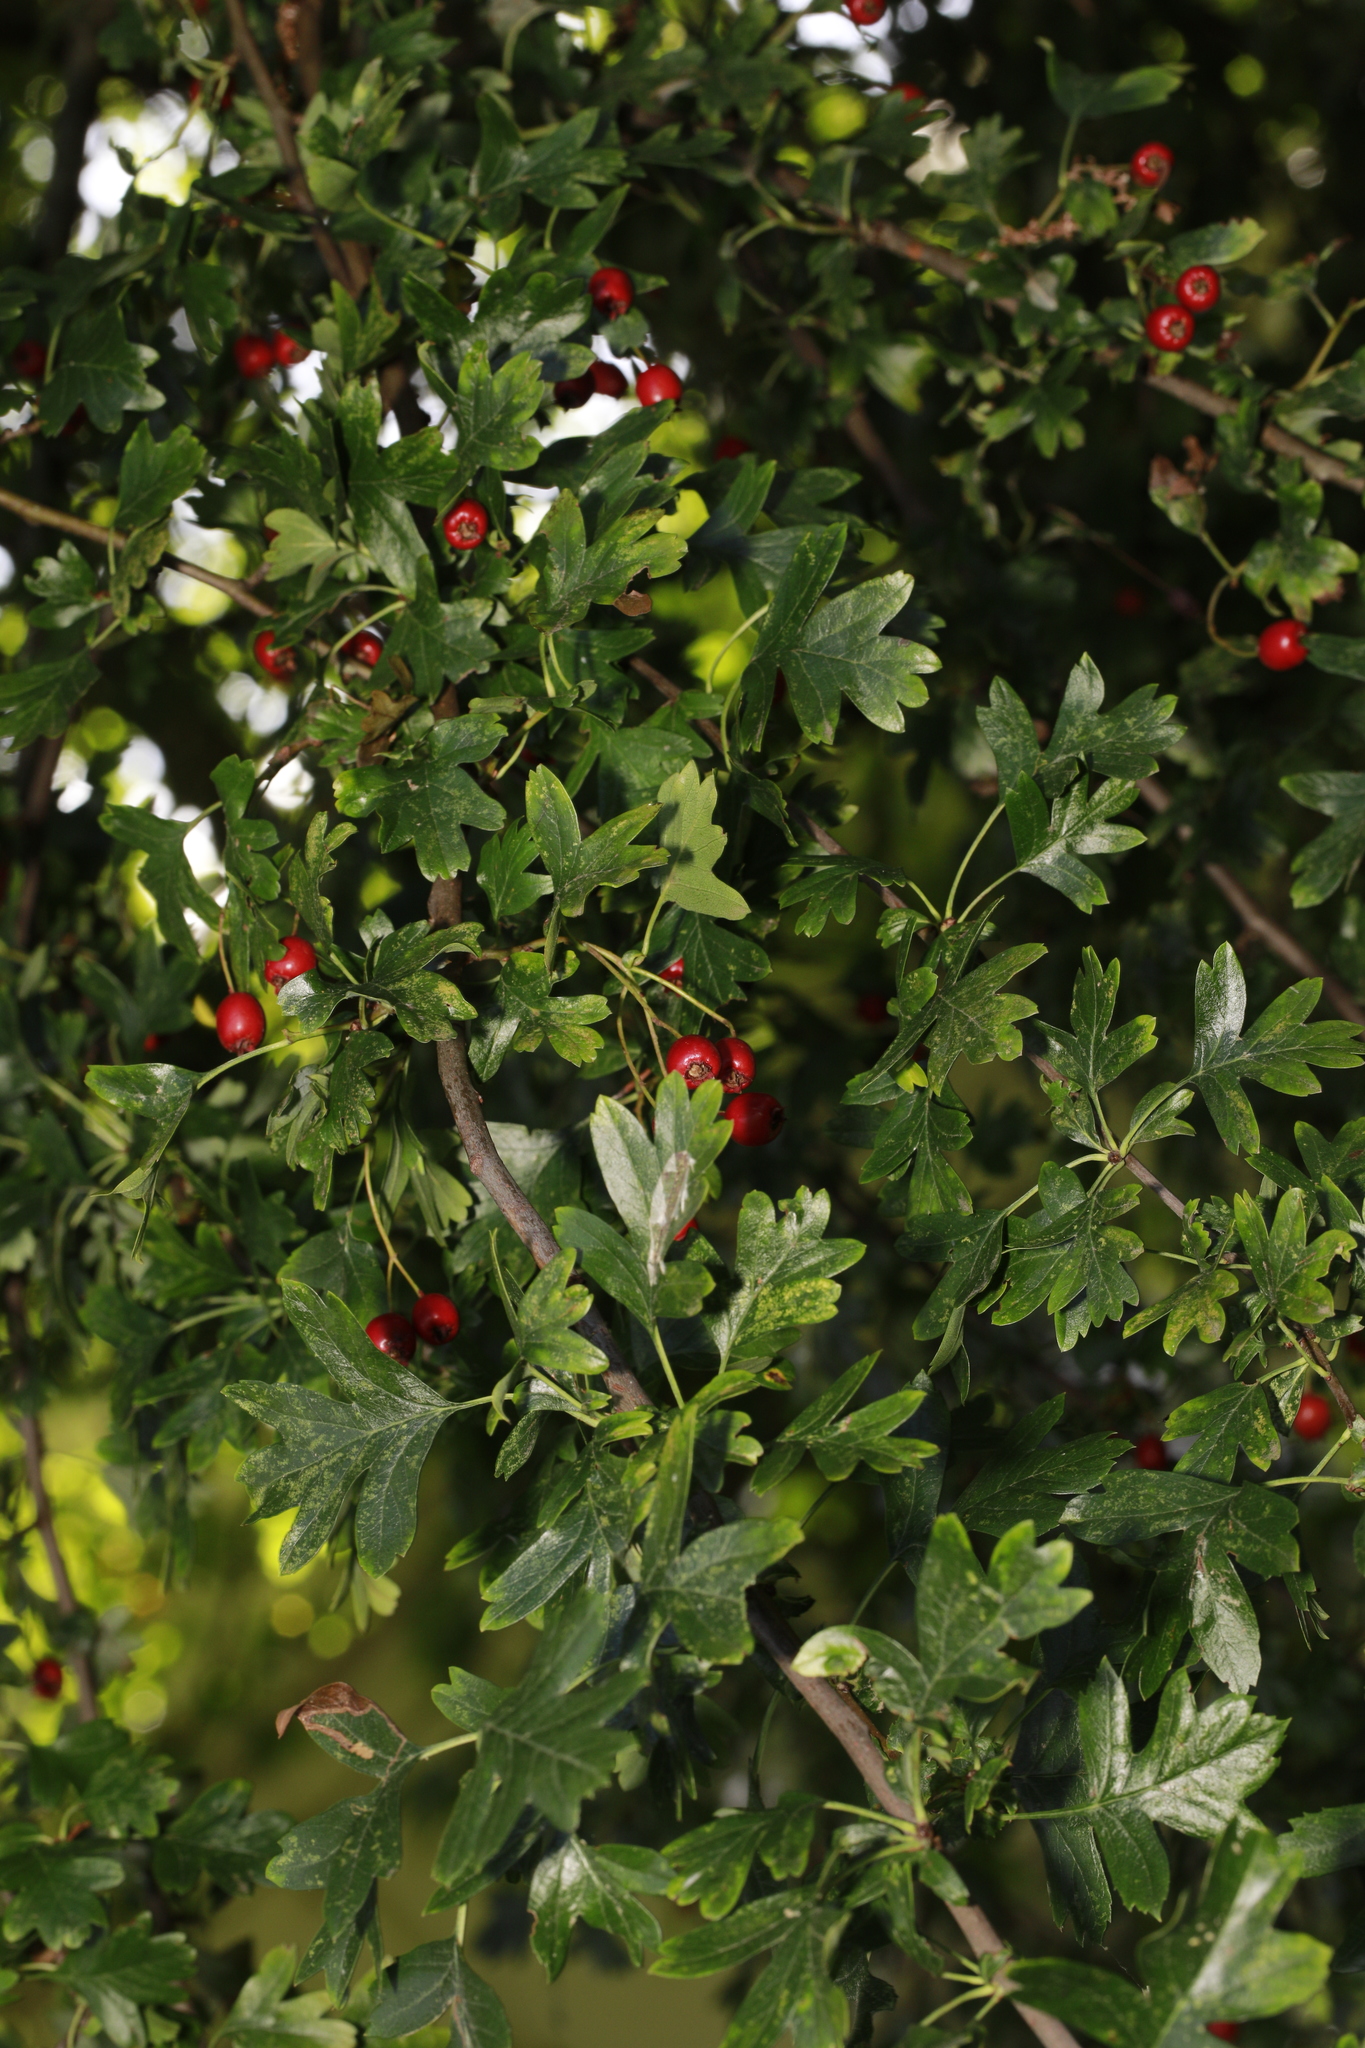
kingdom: Plantae
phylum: Tracheophyta
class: Magnoliopsida
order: Rosales
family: Rosaceae
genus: Crataegus
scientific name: Crataegus monogyna
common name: Hawthorn
